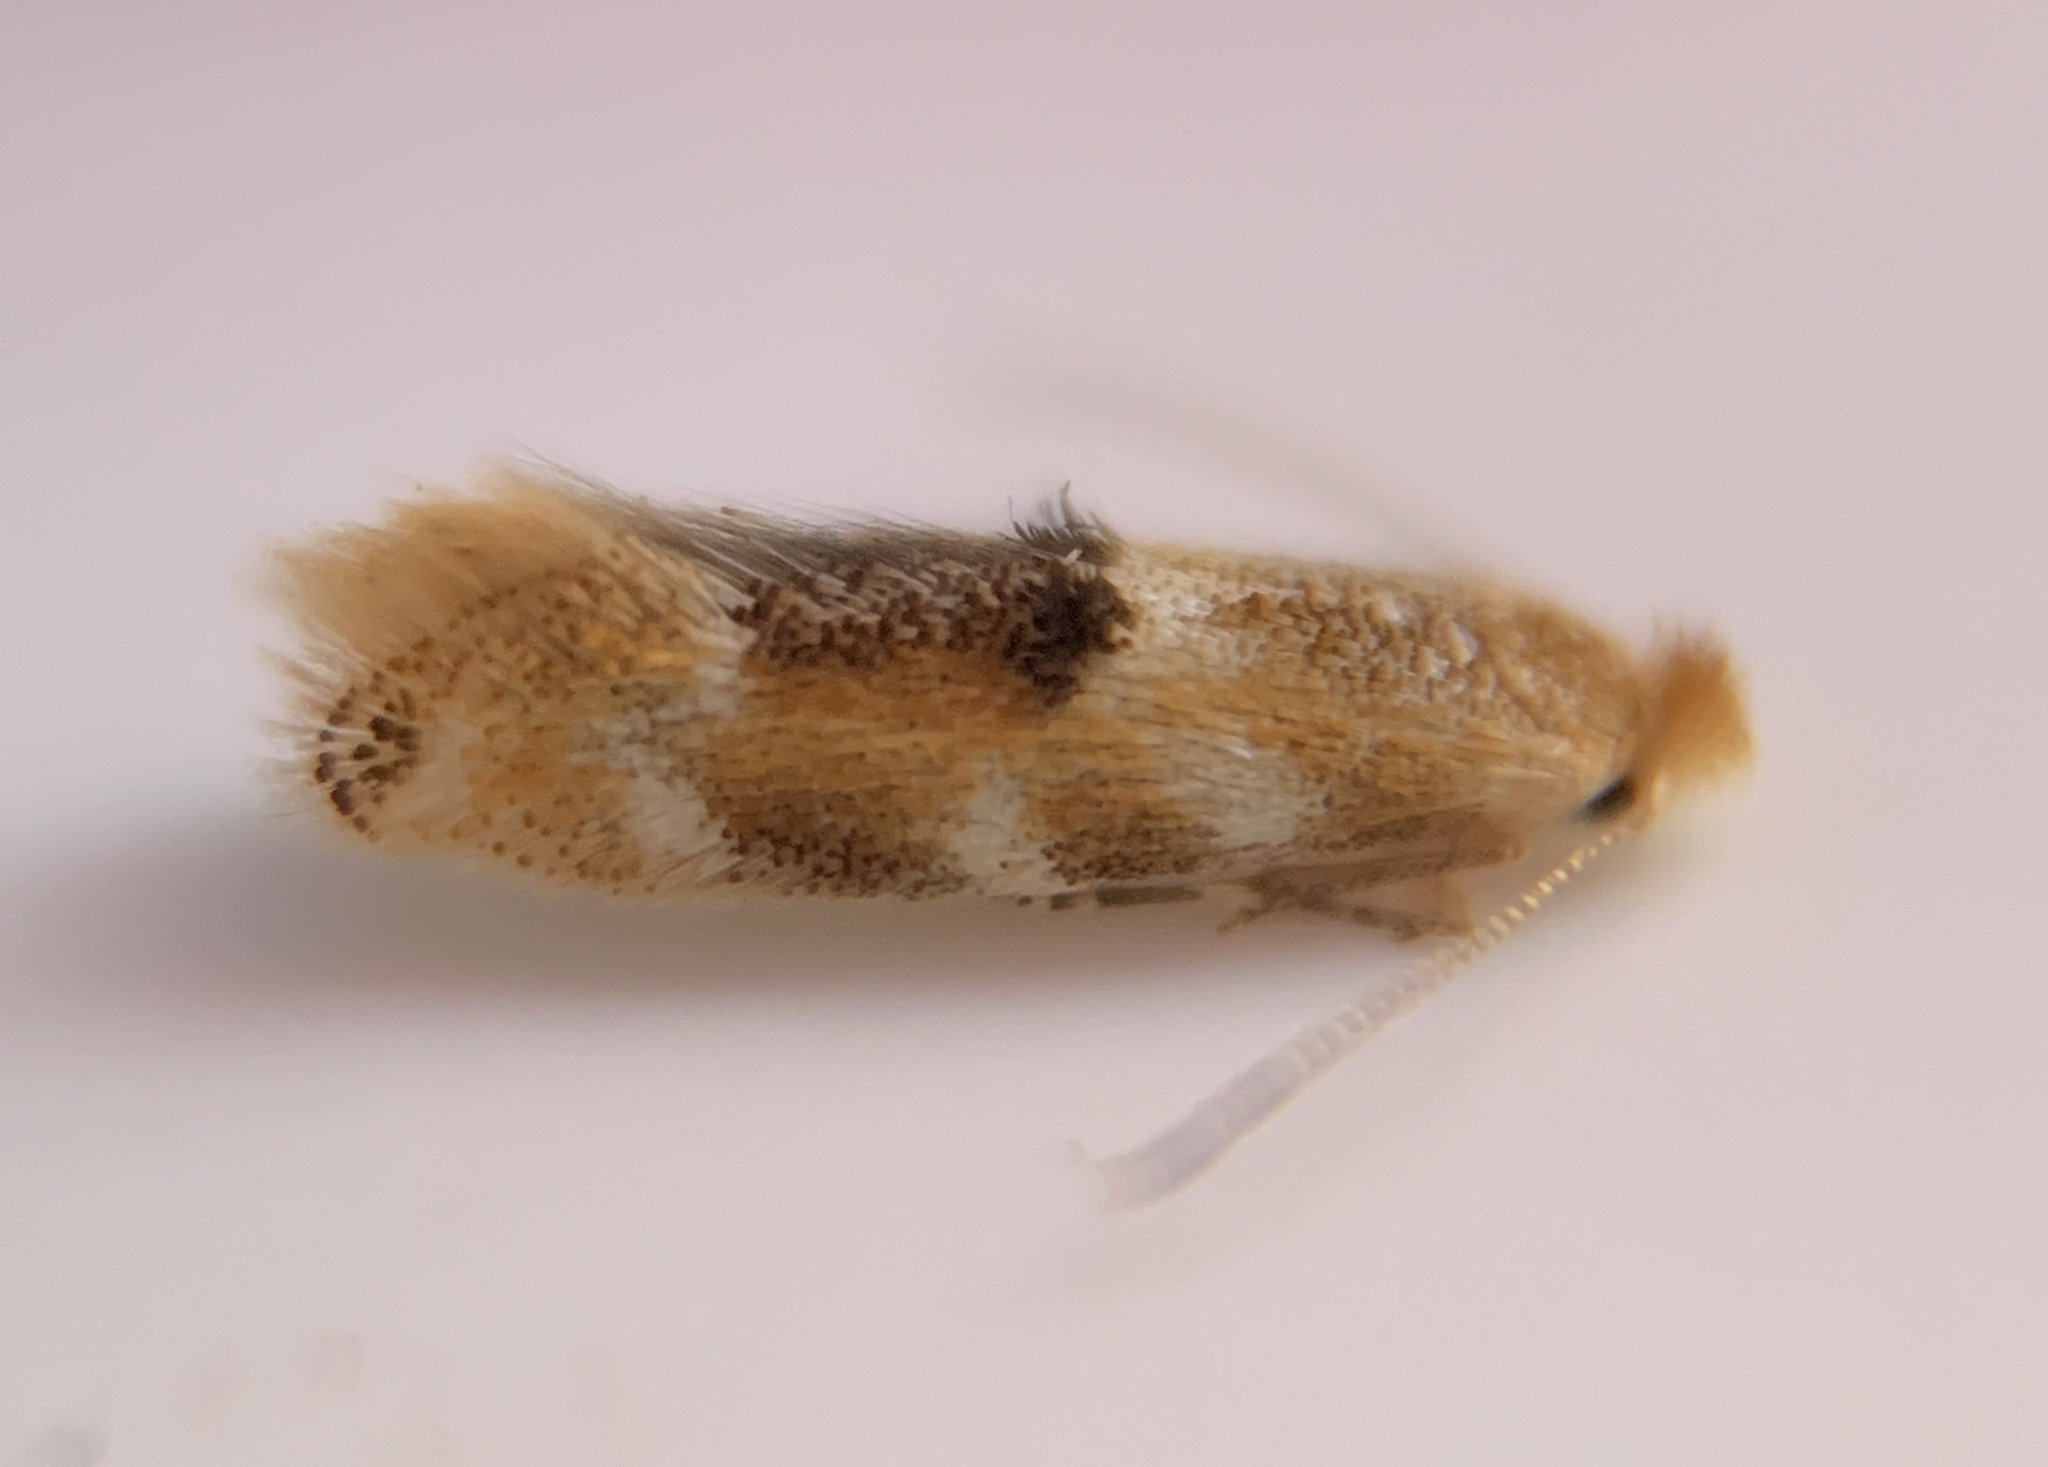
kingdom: Animalia
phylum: Arthropoda
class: Insecta
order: Lepidoptera
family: Bucculatricidae
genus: Bucculatrix
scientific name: Bucculatrix trifasciella
